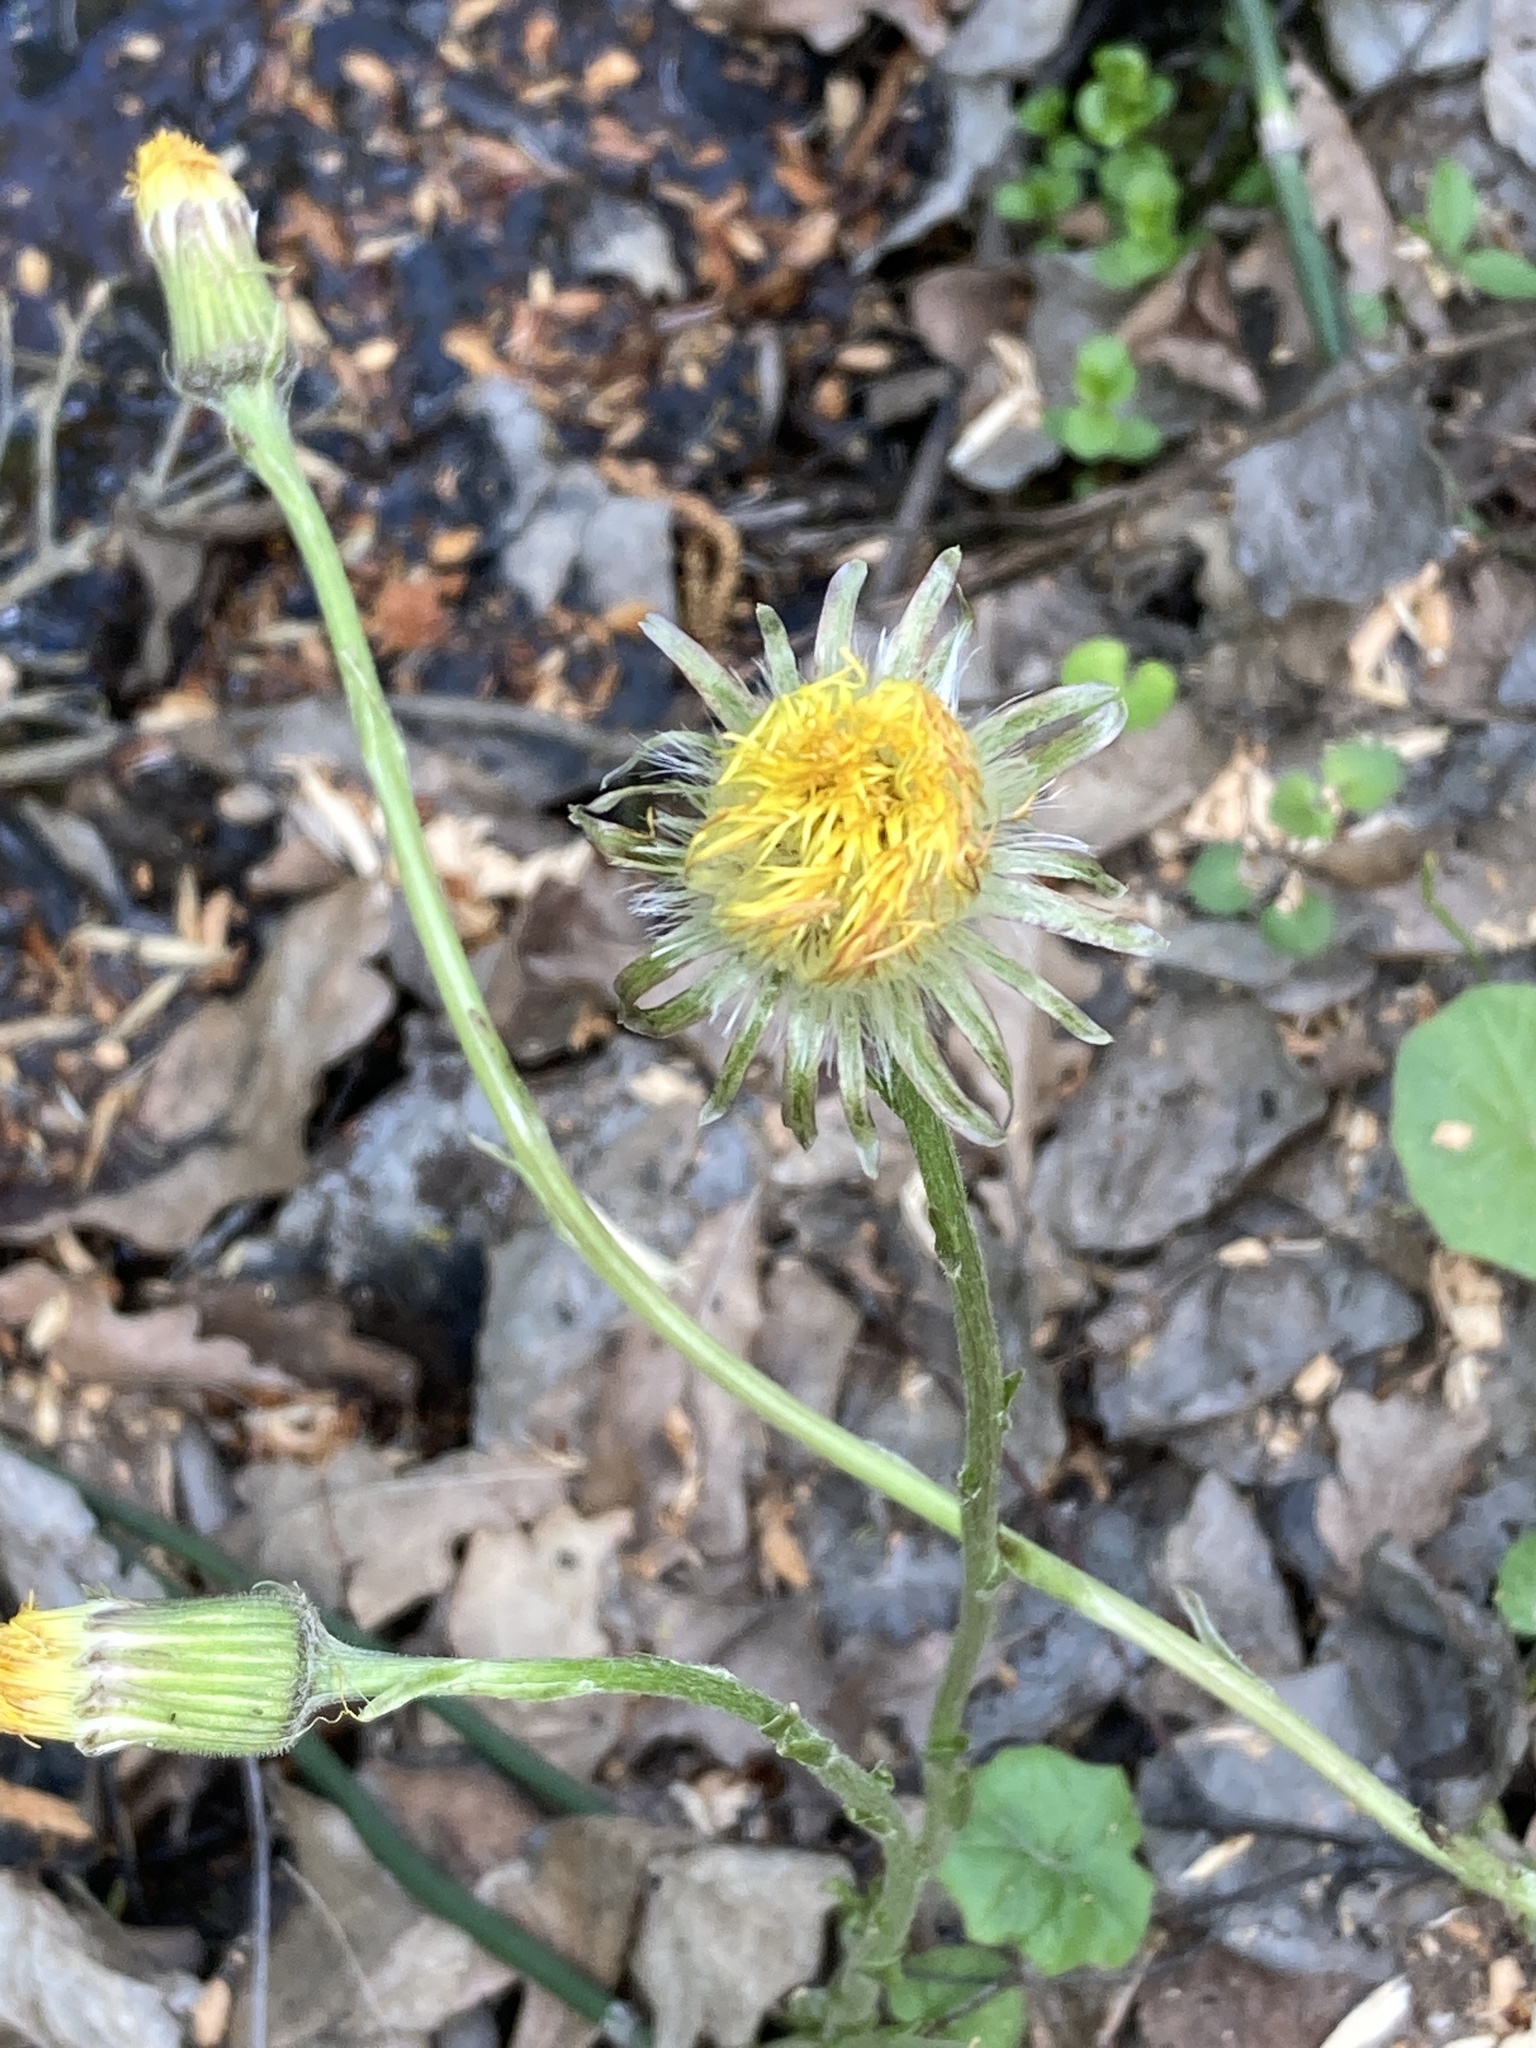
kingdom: Plantae
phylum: Tracheophyta
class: Magnoliopsida
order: Asterales
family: Asteraceae
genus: Tussilago
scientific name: Tussilago farfara
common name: Coltsfoot
